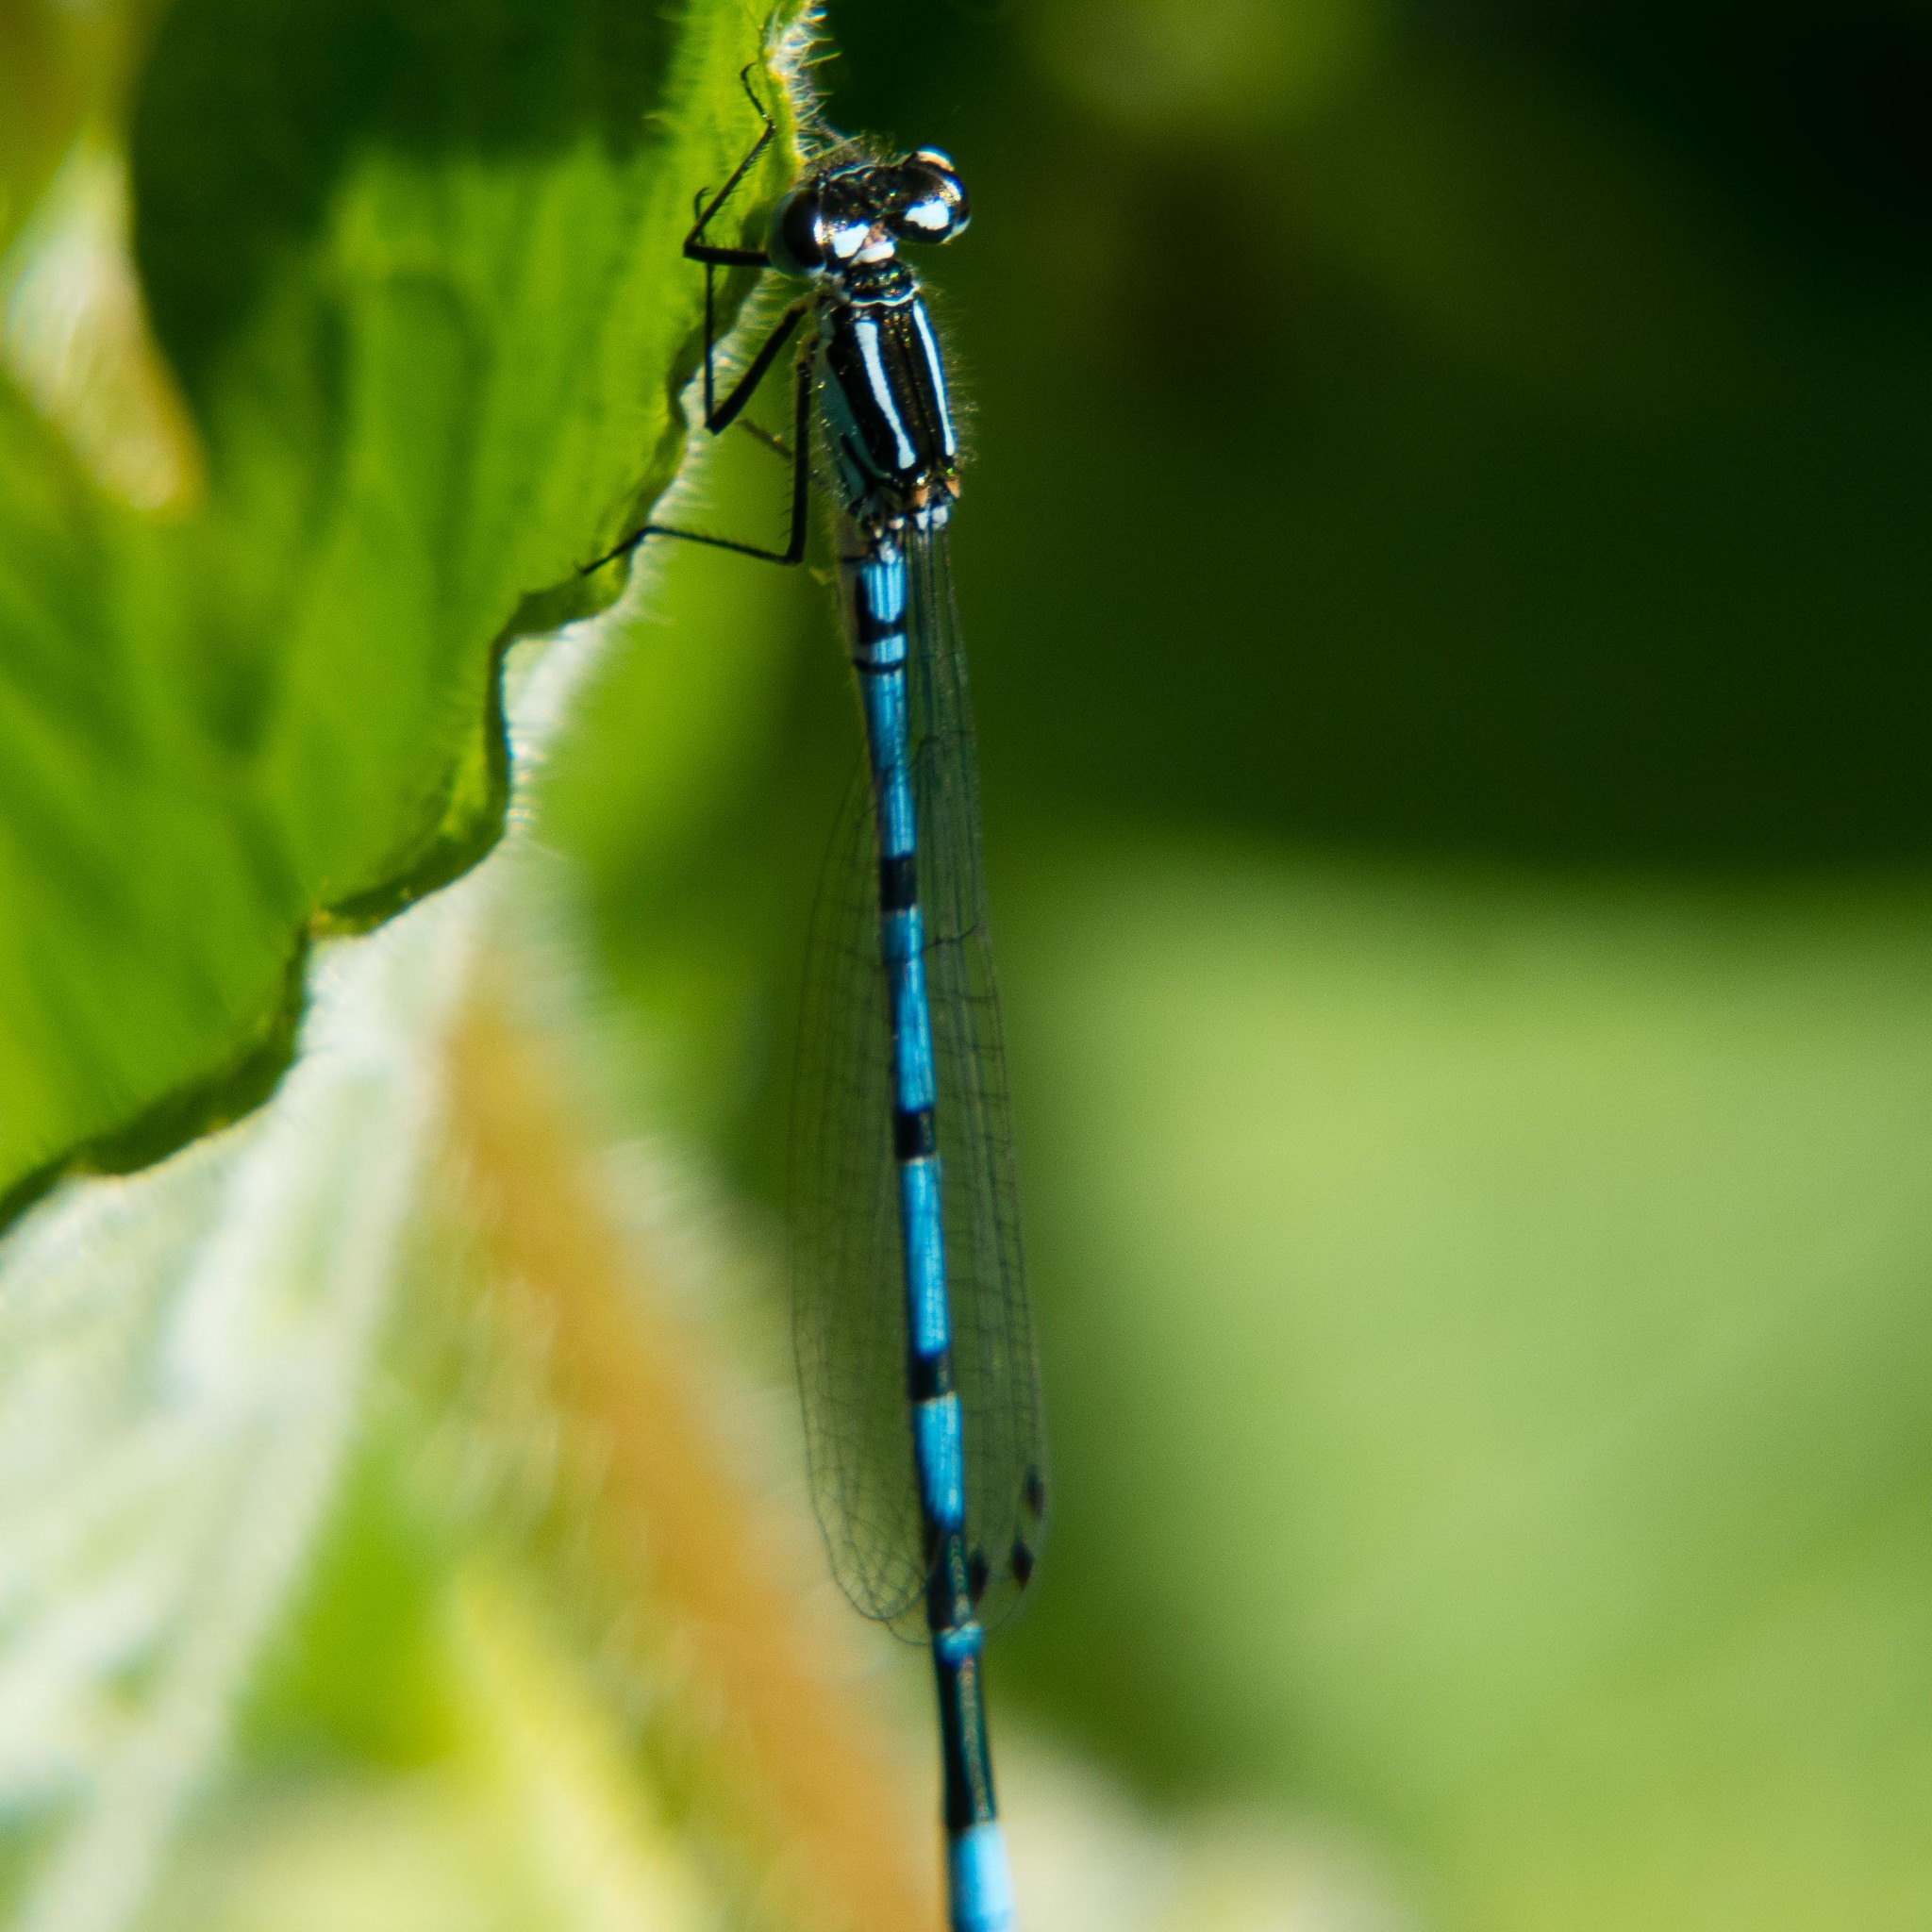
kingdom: Animalia
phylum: Arthropoda
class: Insecta
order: Odonata
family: Coenagrionidae
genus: Coenagrion
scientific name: Coenagrion puella
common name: Azure damselfly
